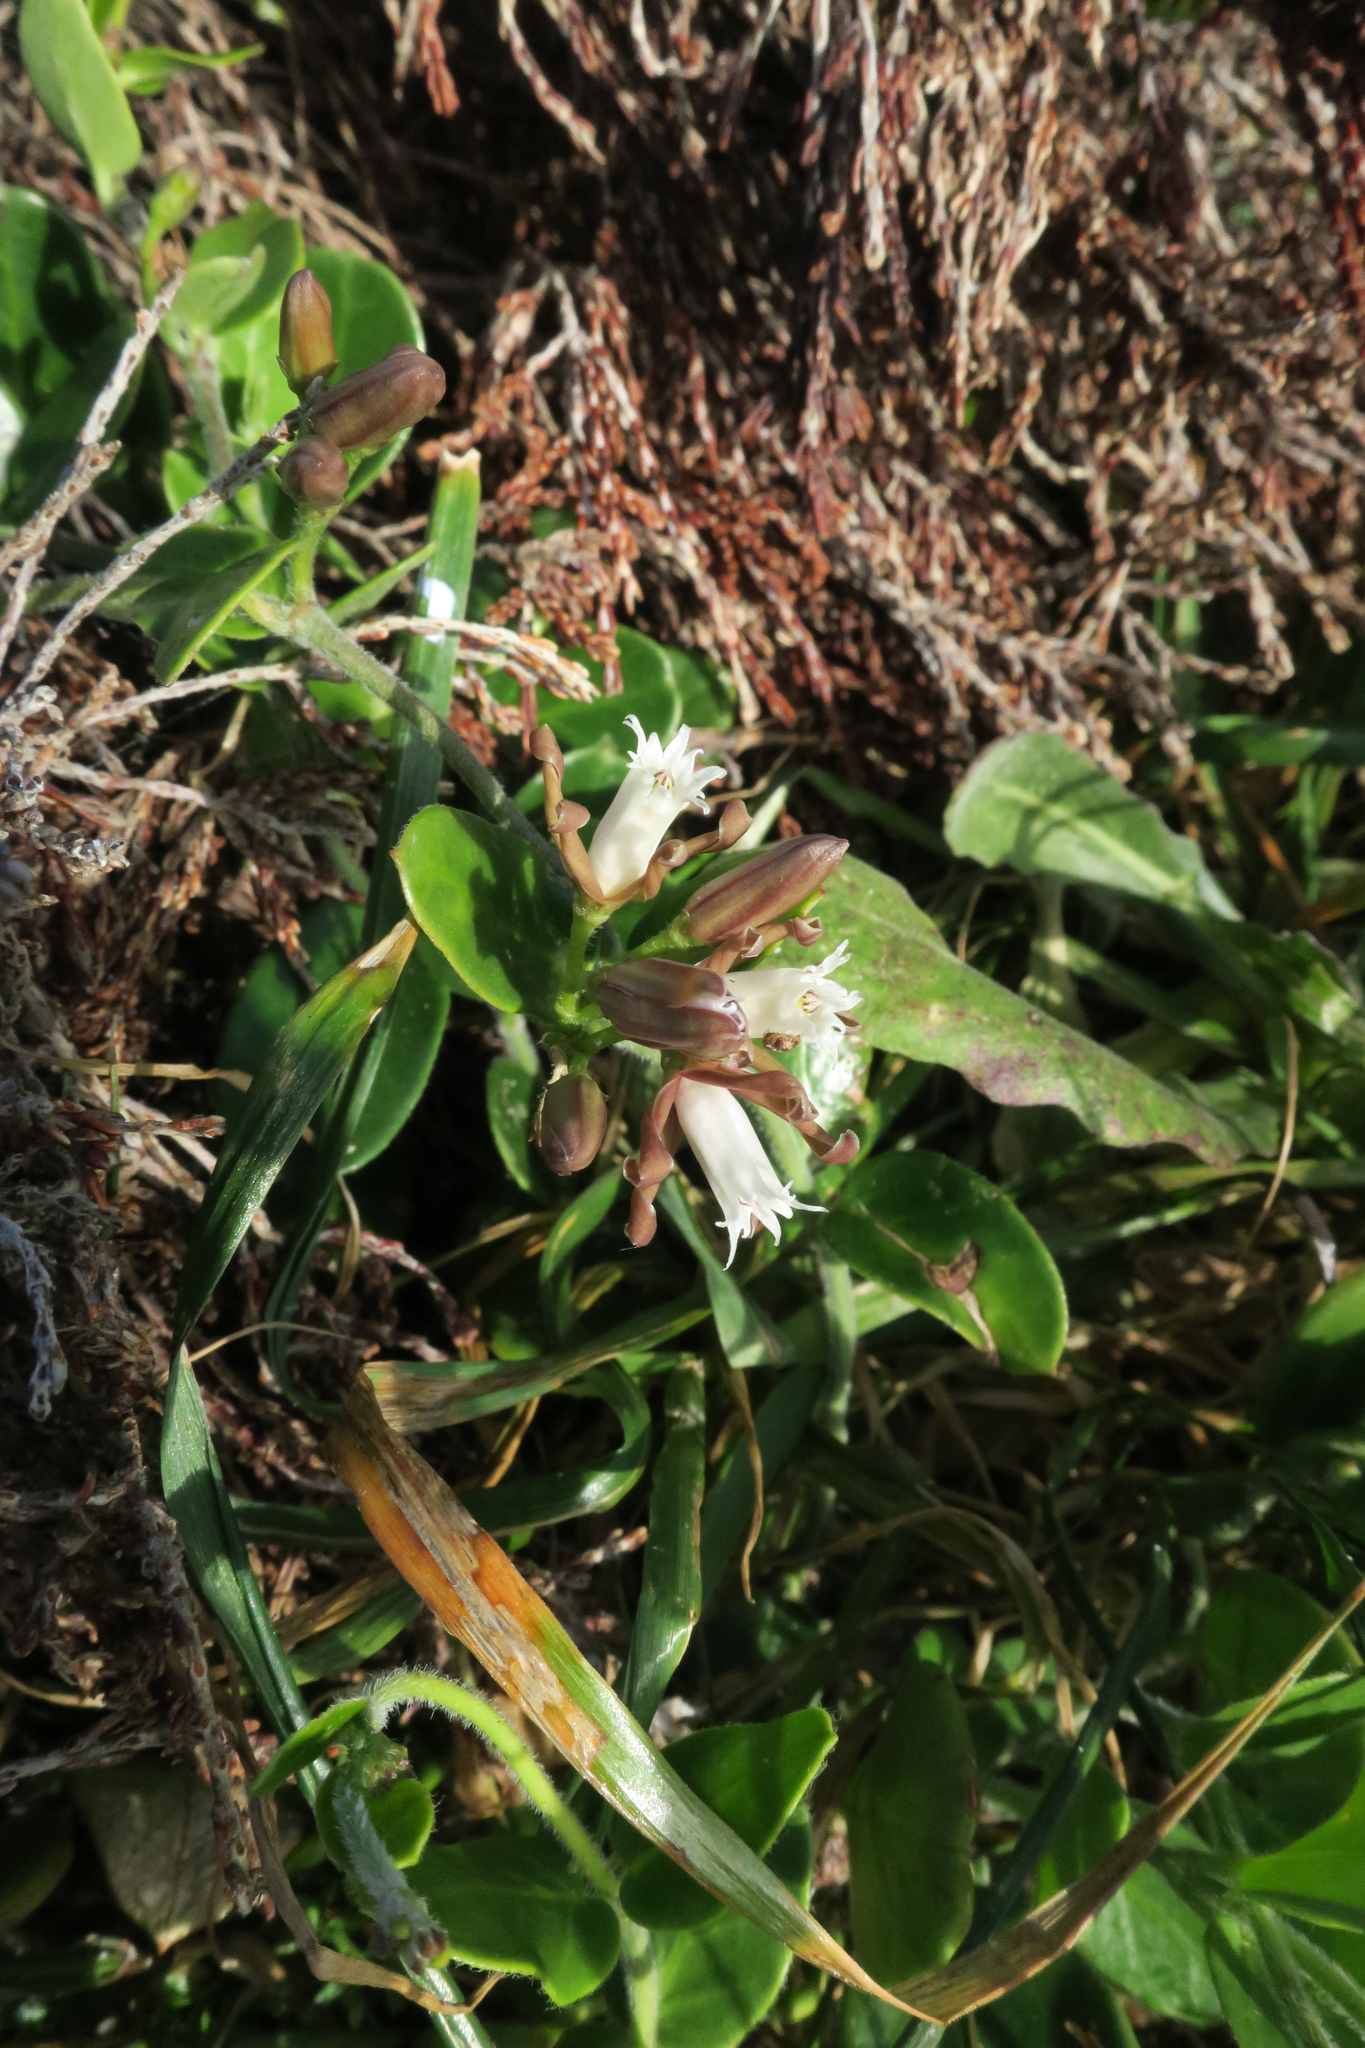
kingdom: Plantae
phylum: Tracheophyta
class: Magnoliopsida
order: Gentianales
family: Apocynaceae
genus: Cynanchum
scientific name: Cynanchum africanum
